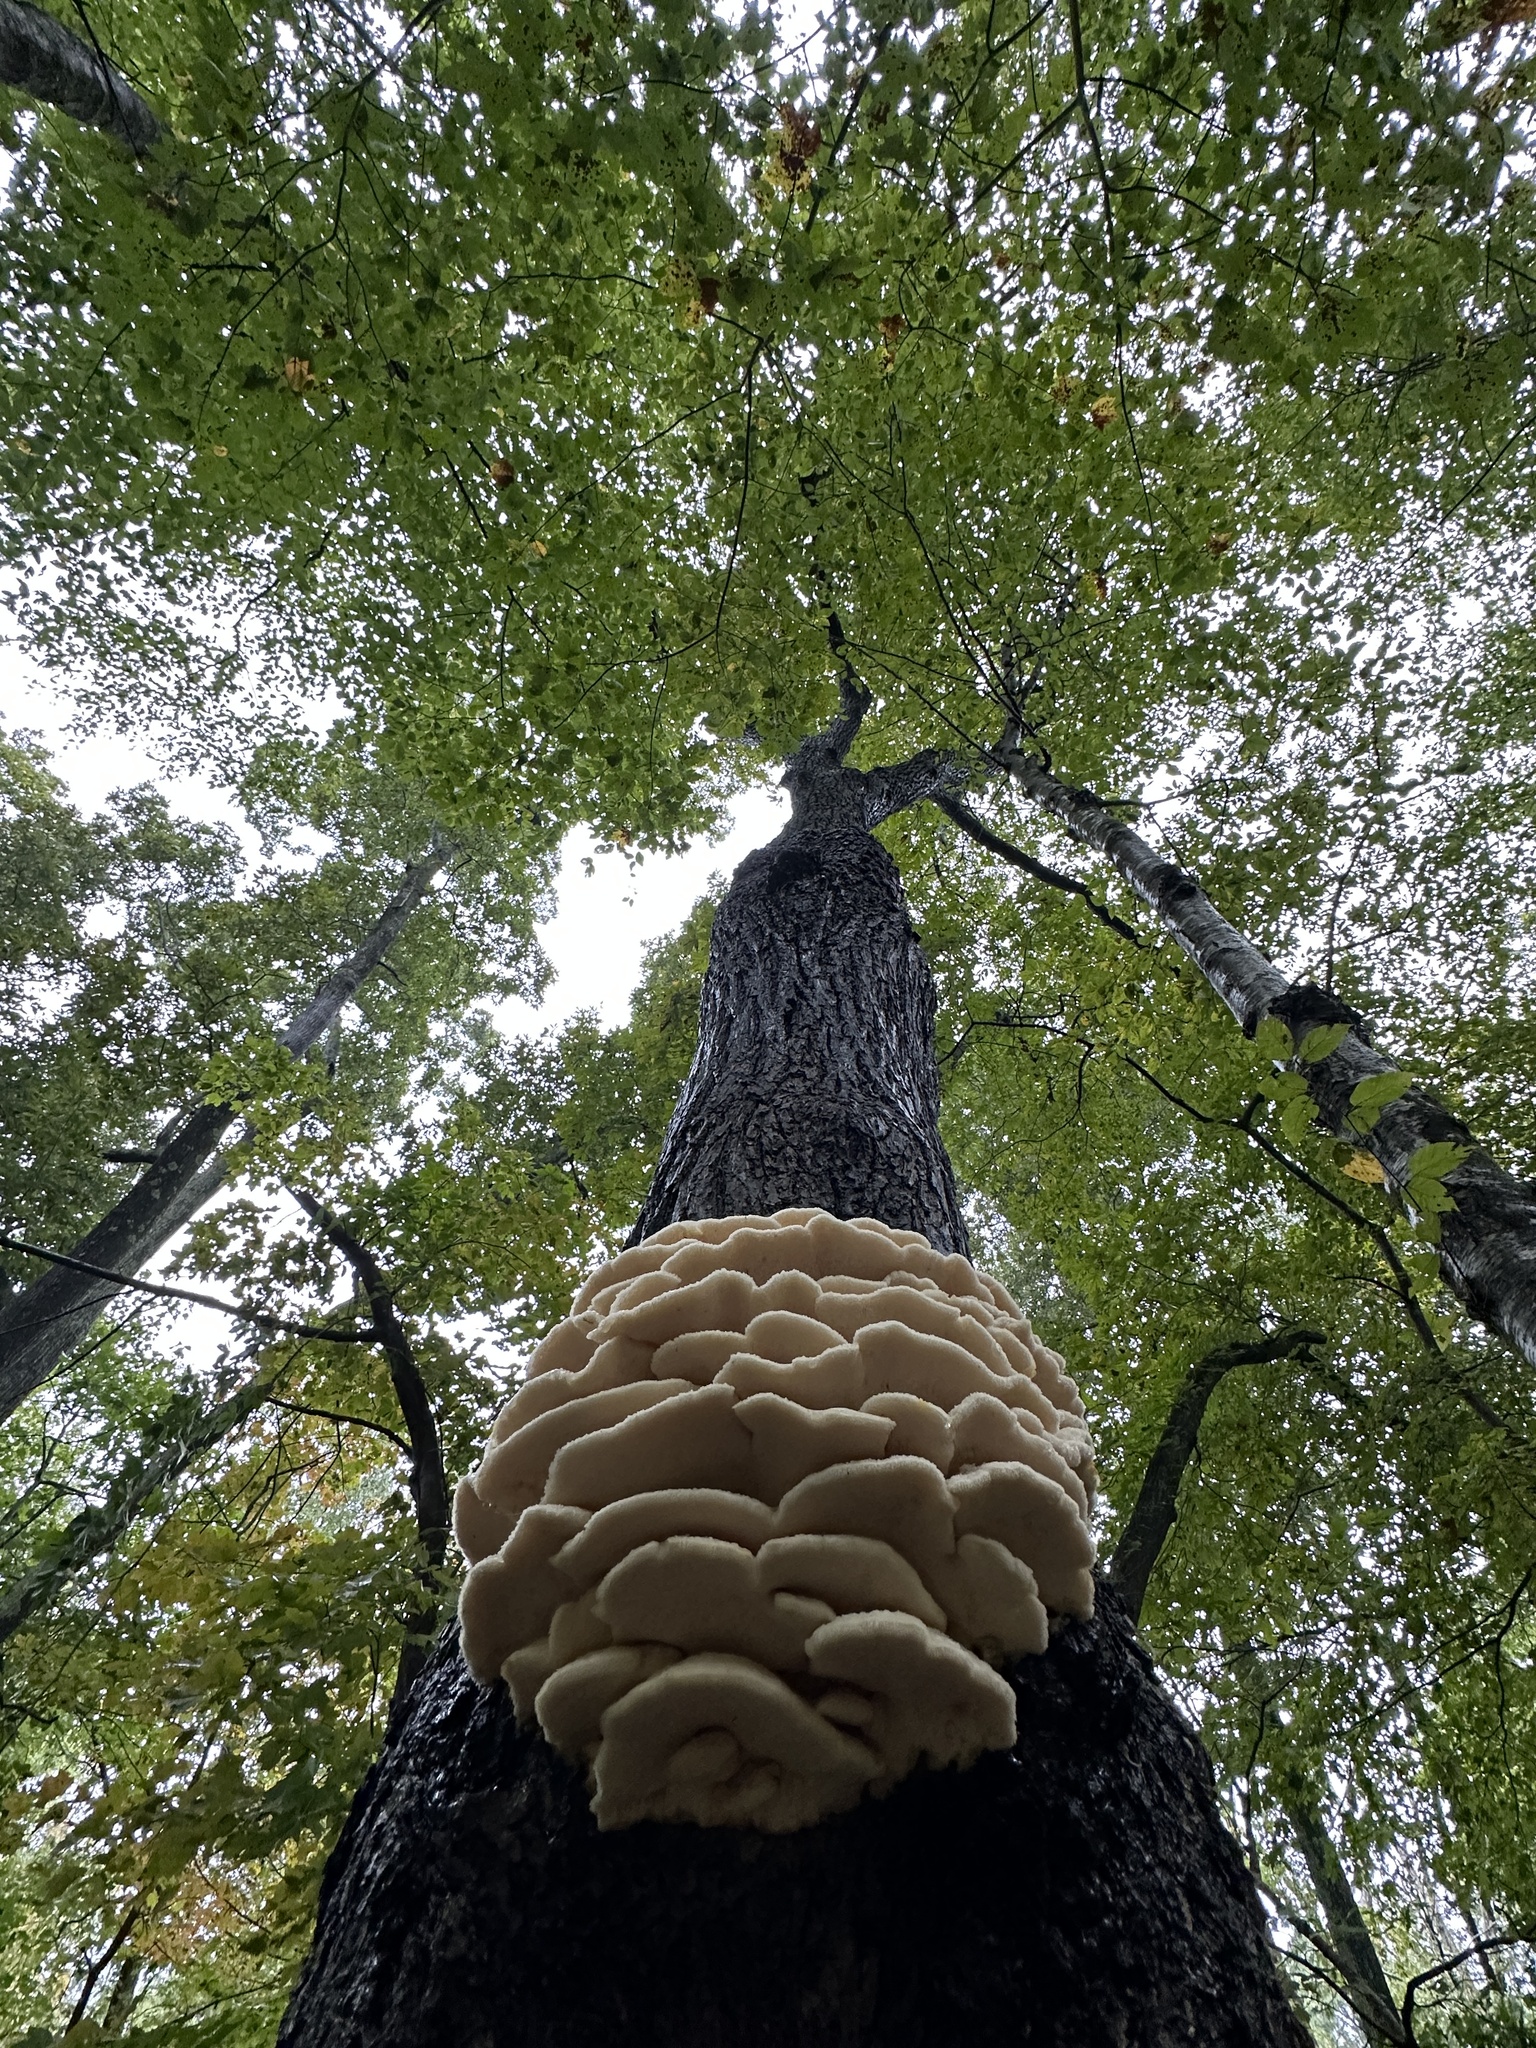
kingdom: Fungi
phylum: Basidiomycota
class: Agaricomycetes
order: Polyporales
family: Meruliaceae
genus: Climacodon
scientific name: Climacodon septentrionalis
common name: Northern tooth
